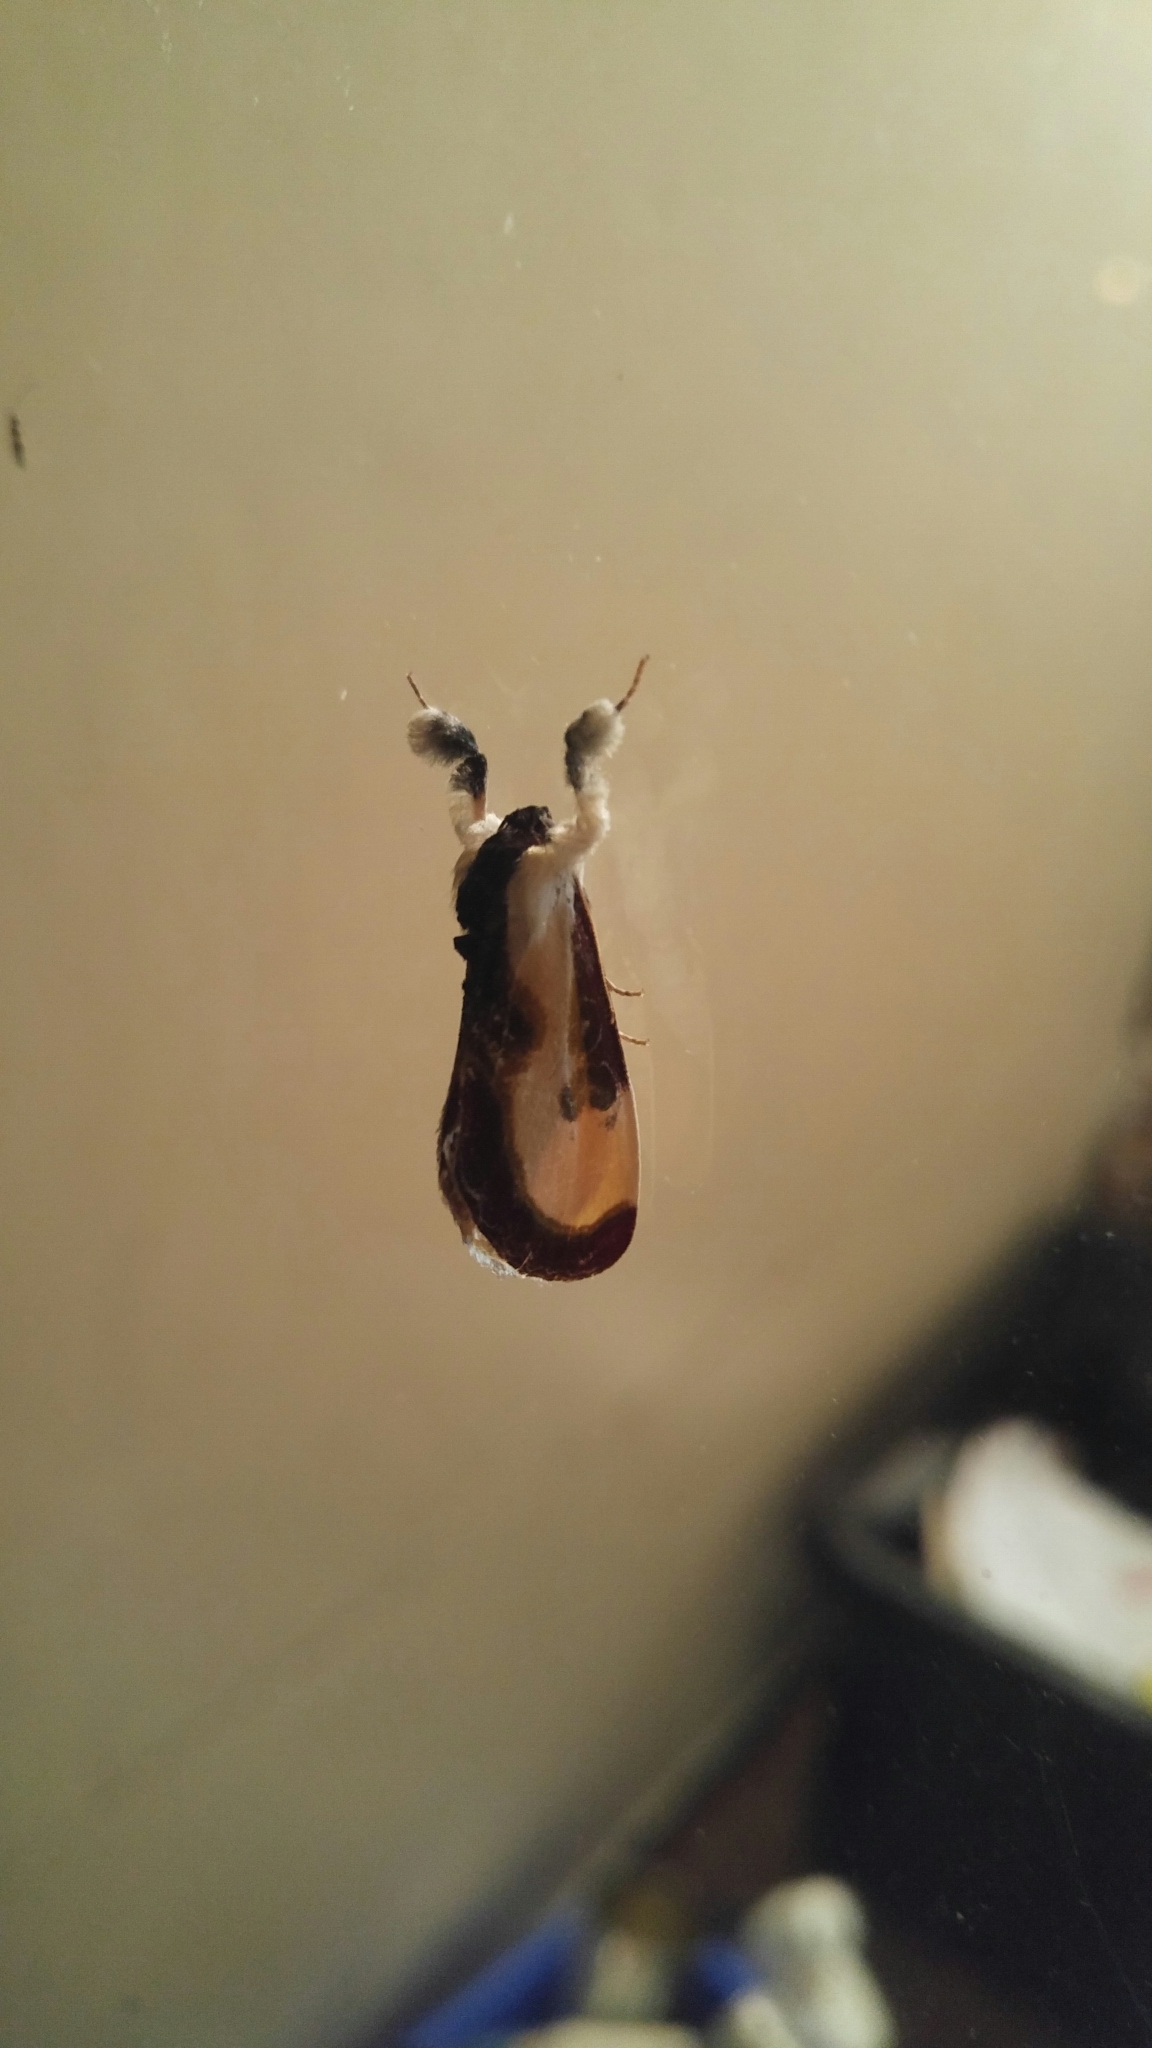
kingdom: Animalia
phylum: Arthropoda
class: Insecta
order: Lepidoptera
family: Noctuidae
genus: Eudryas
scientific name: Eudryas grata
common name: Beautiful wood-nymph
